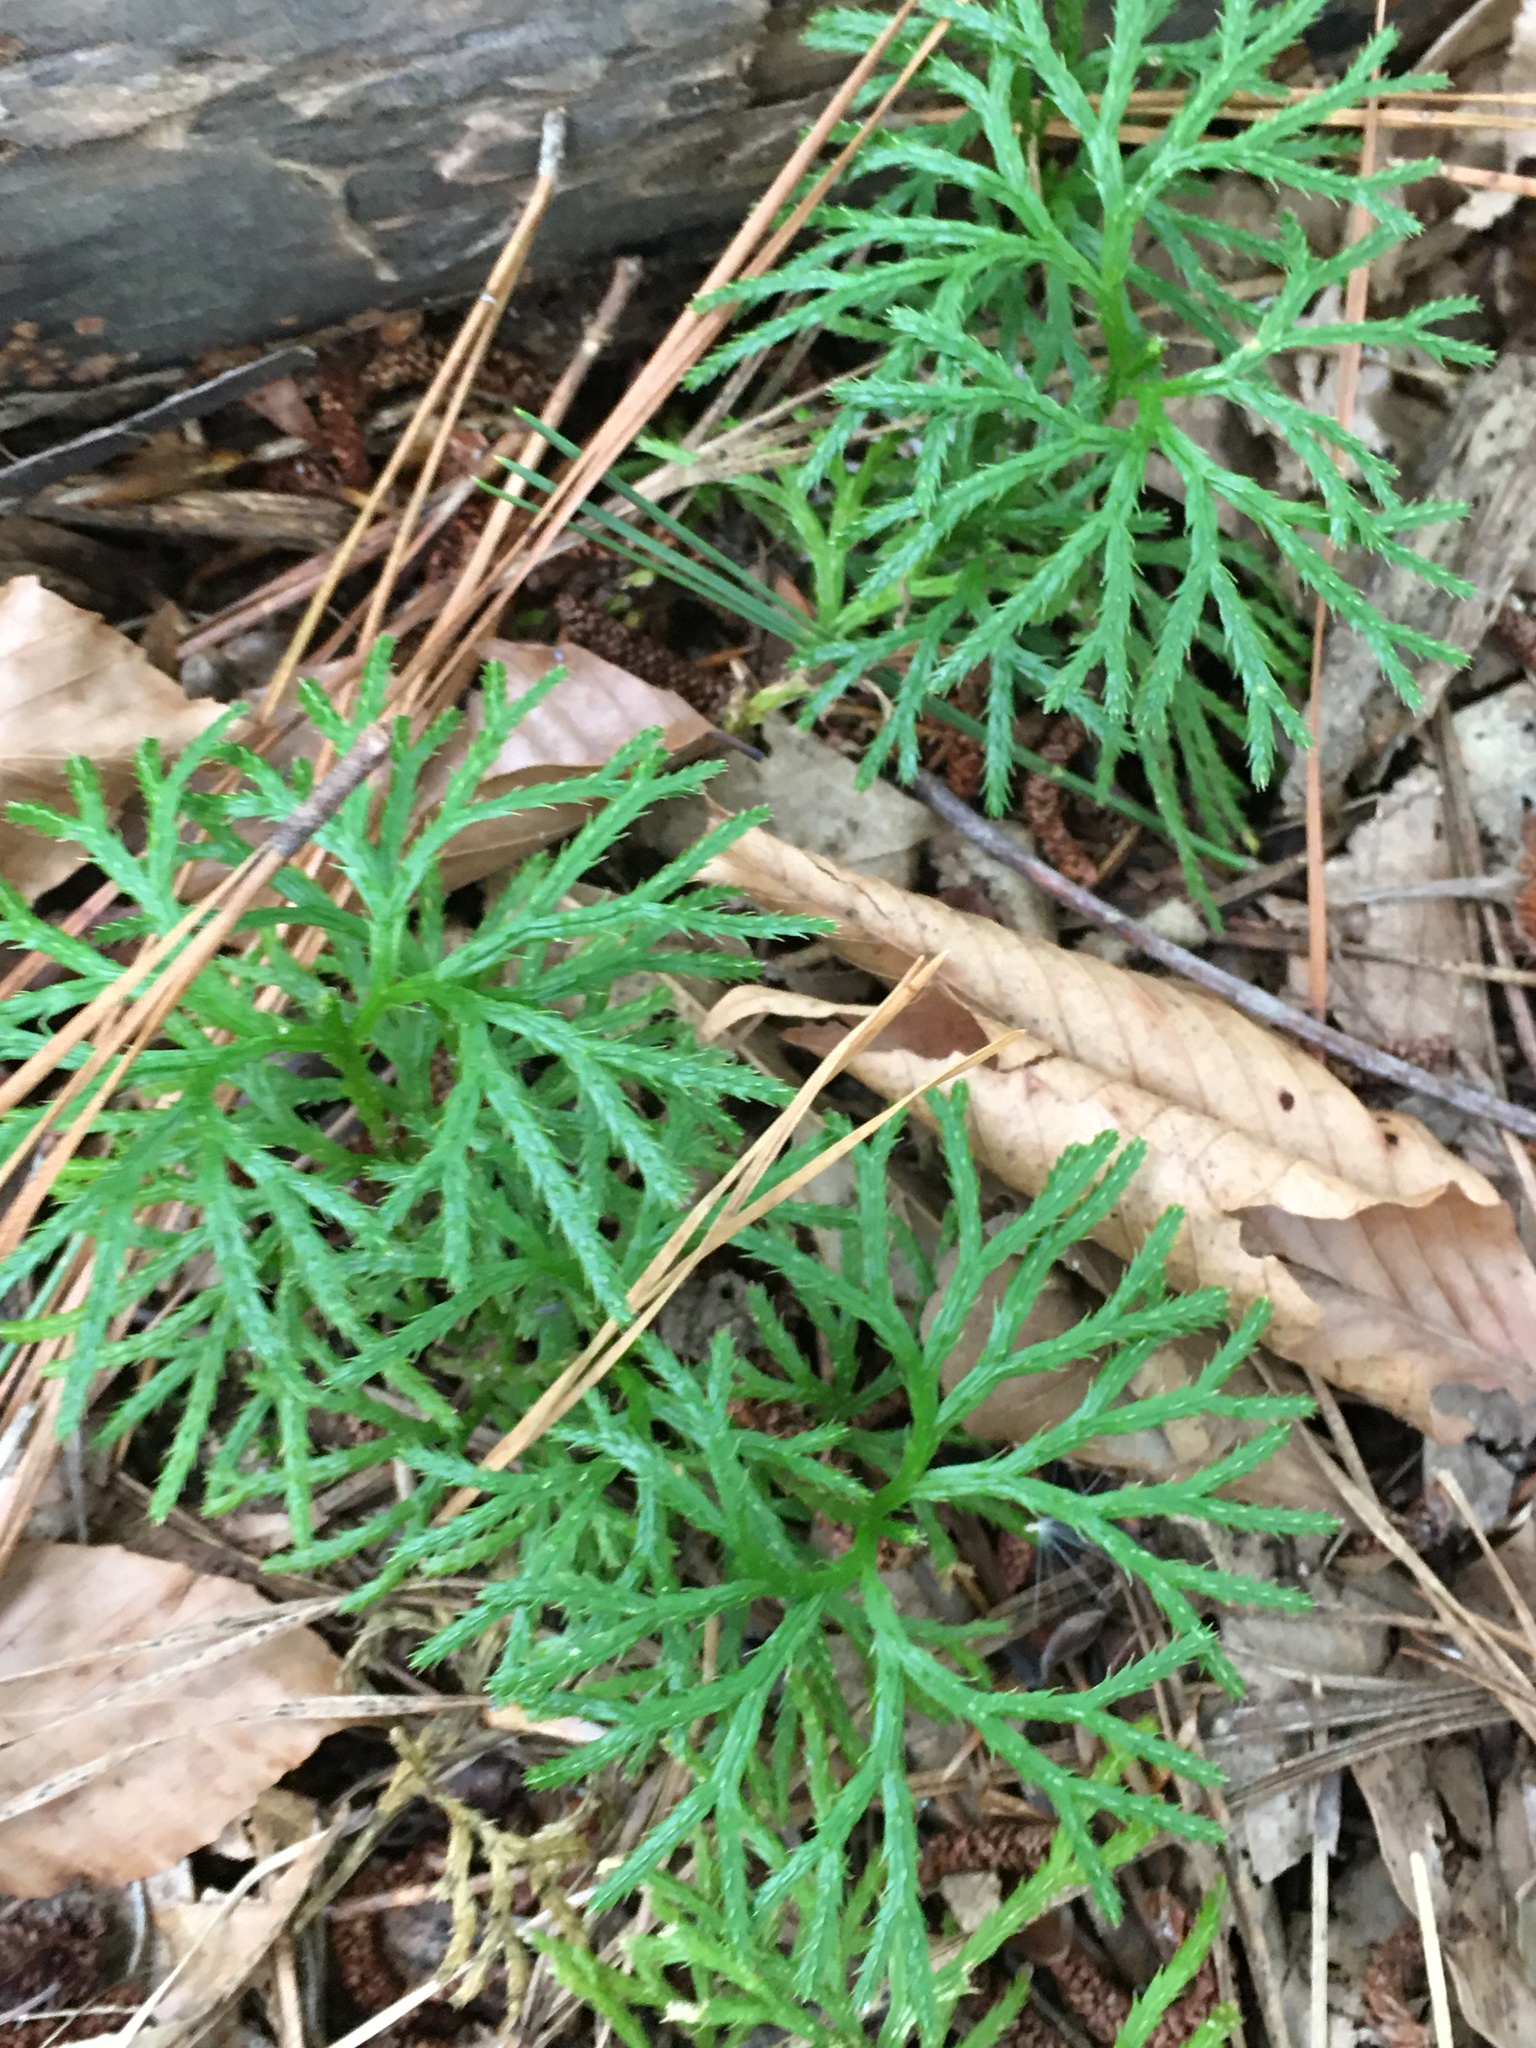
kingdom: Plantae
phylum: Tracheophyta
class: Lycopodiopsida
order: Lycopodiales
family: Lycopodiaceae
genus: Diphasiastrum
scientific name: Diphasiastrum digitatum
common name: Southern running-pine
